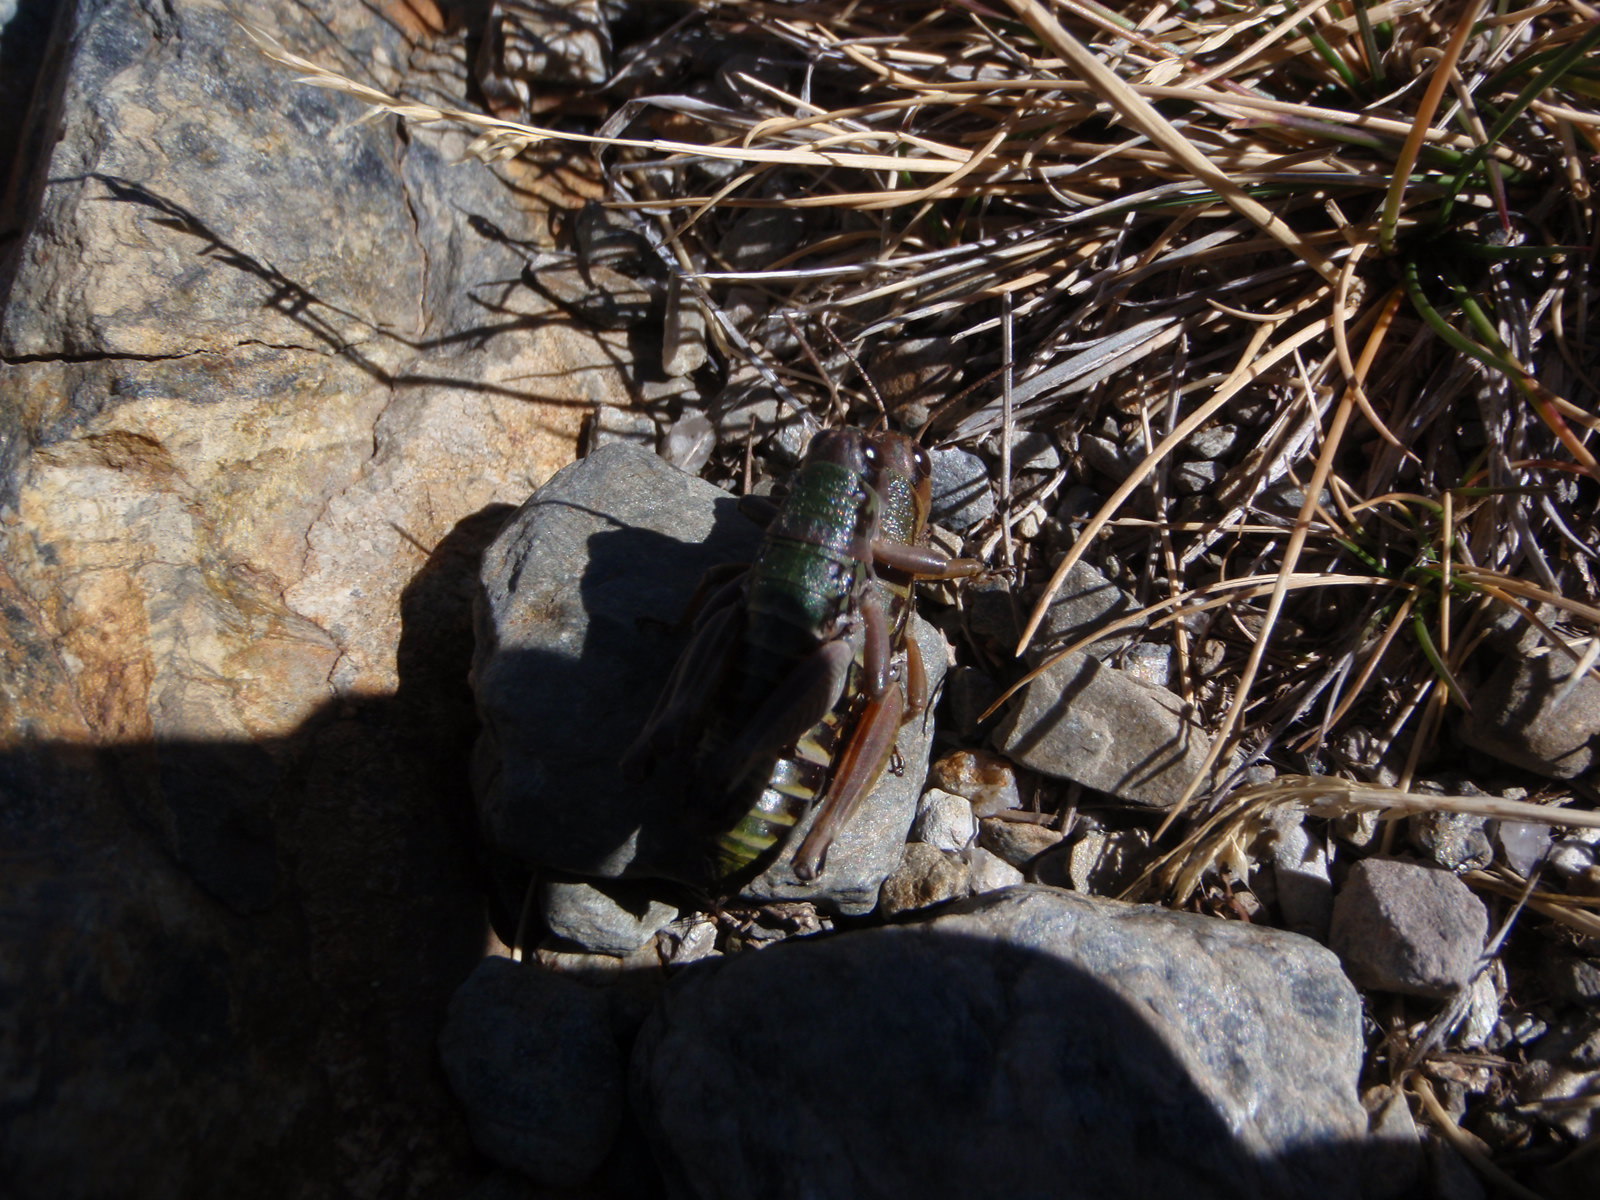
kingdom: Animalia
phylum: Arthropoda
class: Insecta
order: Orthoptera
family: Acrididae
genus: Cophopodisma
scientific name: Cophopodisma pyrenaea
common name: Pyrenean mountain grasshopper
